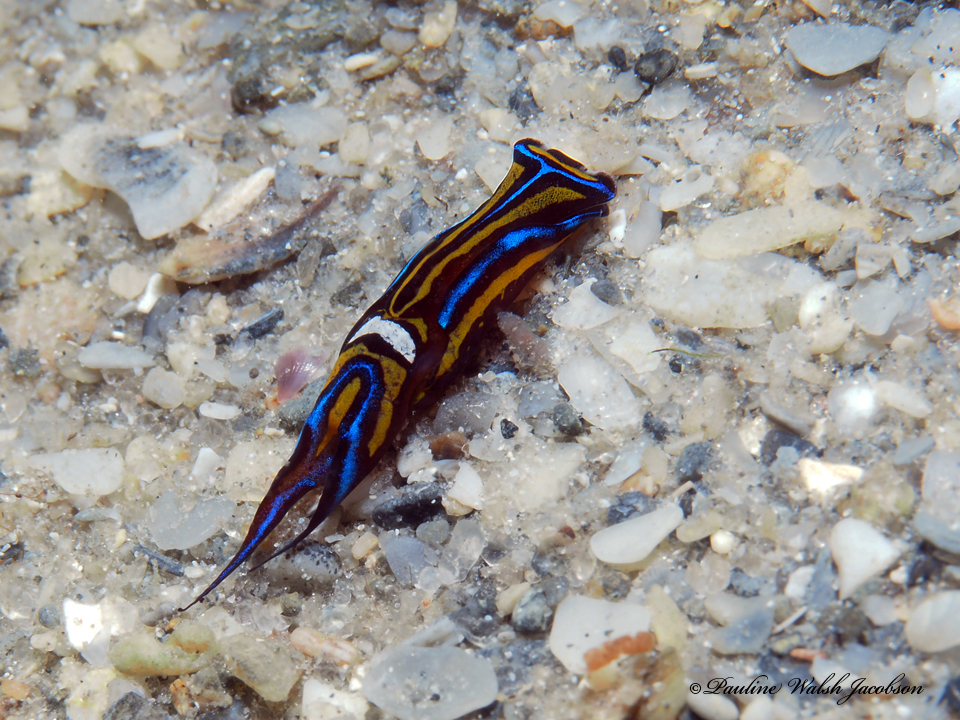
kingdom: Animalia
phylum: Mollusca
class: Gastropoda
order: Cephalaspidea
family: Aglajidae
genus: Chelidonura
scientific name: Chelidonura hirundinina
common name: Leech headshield slug
